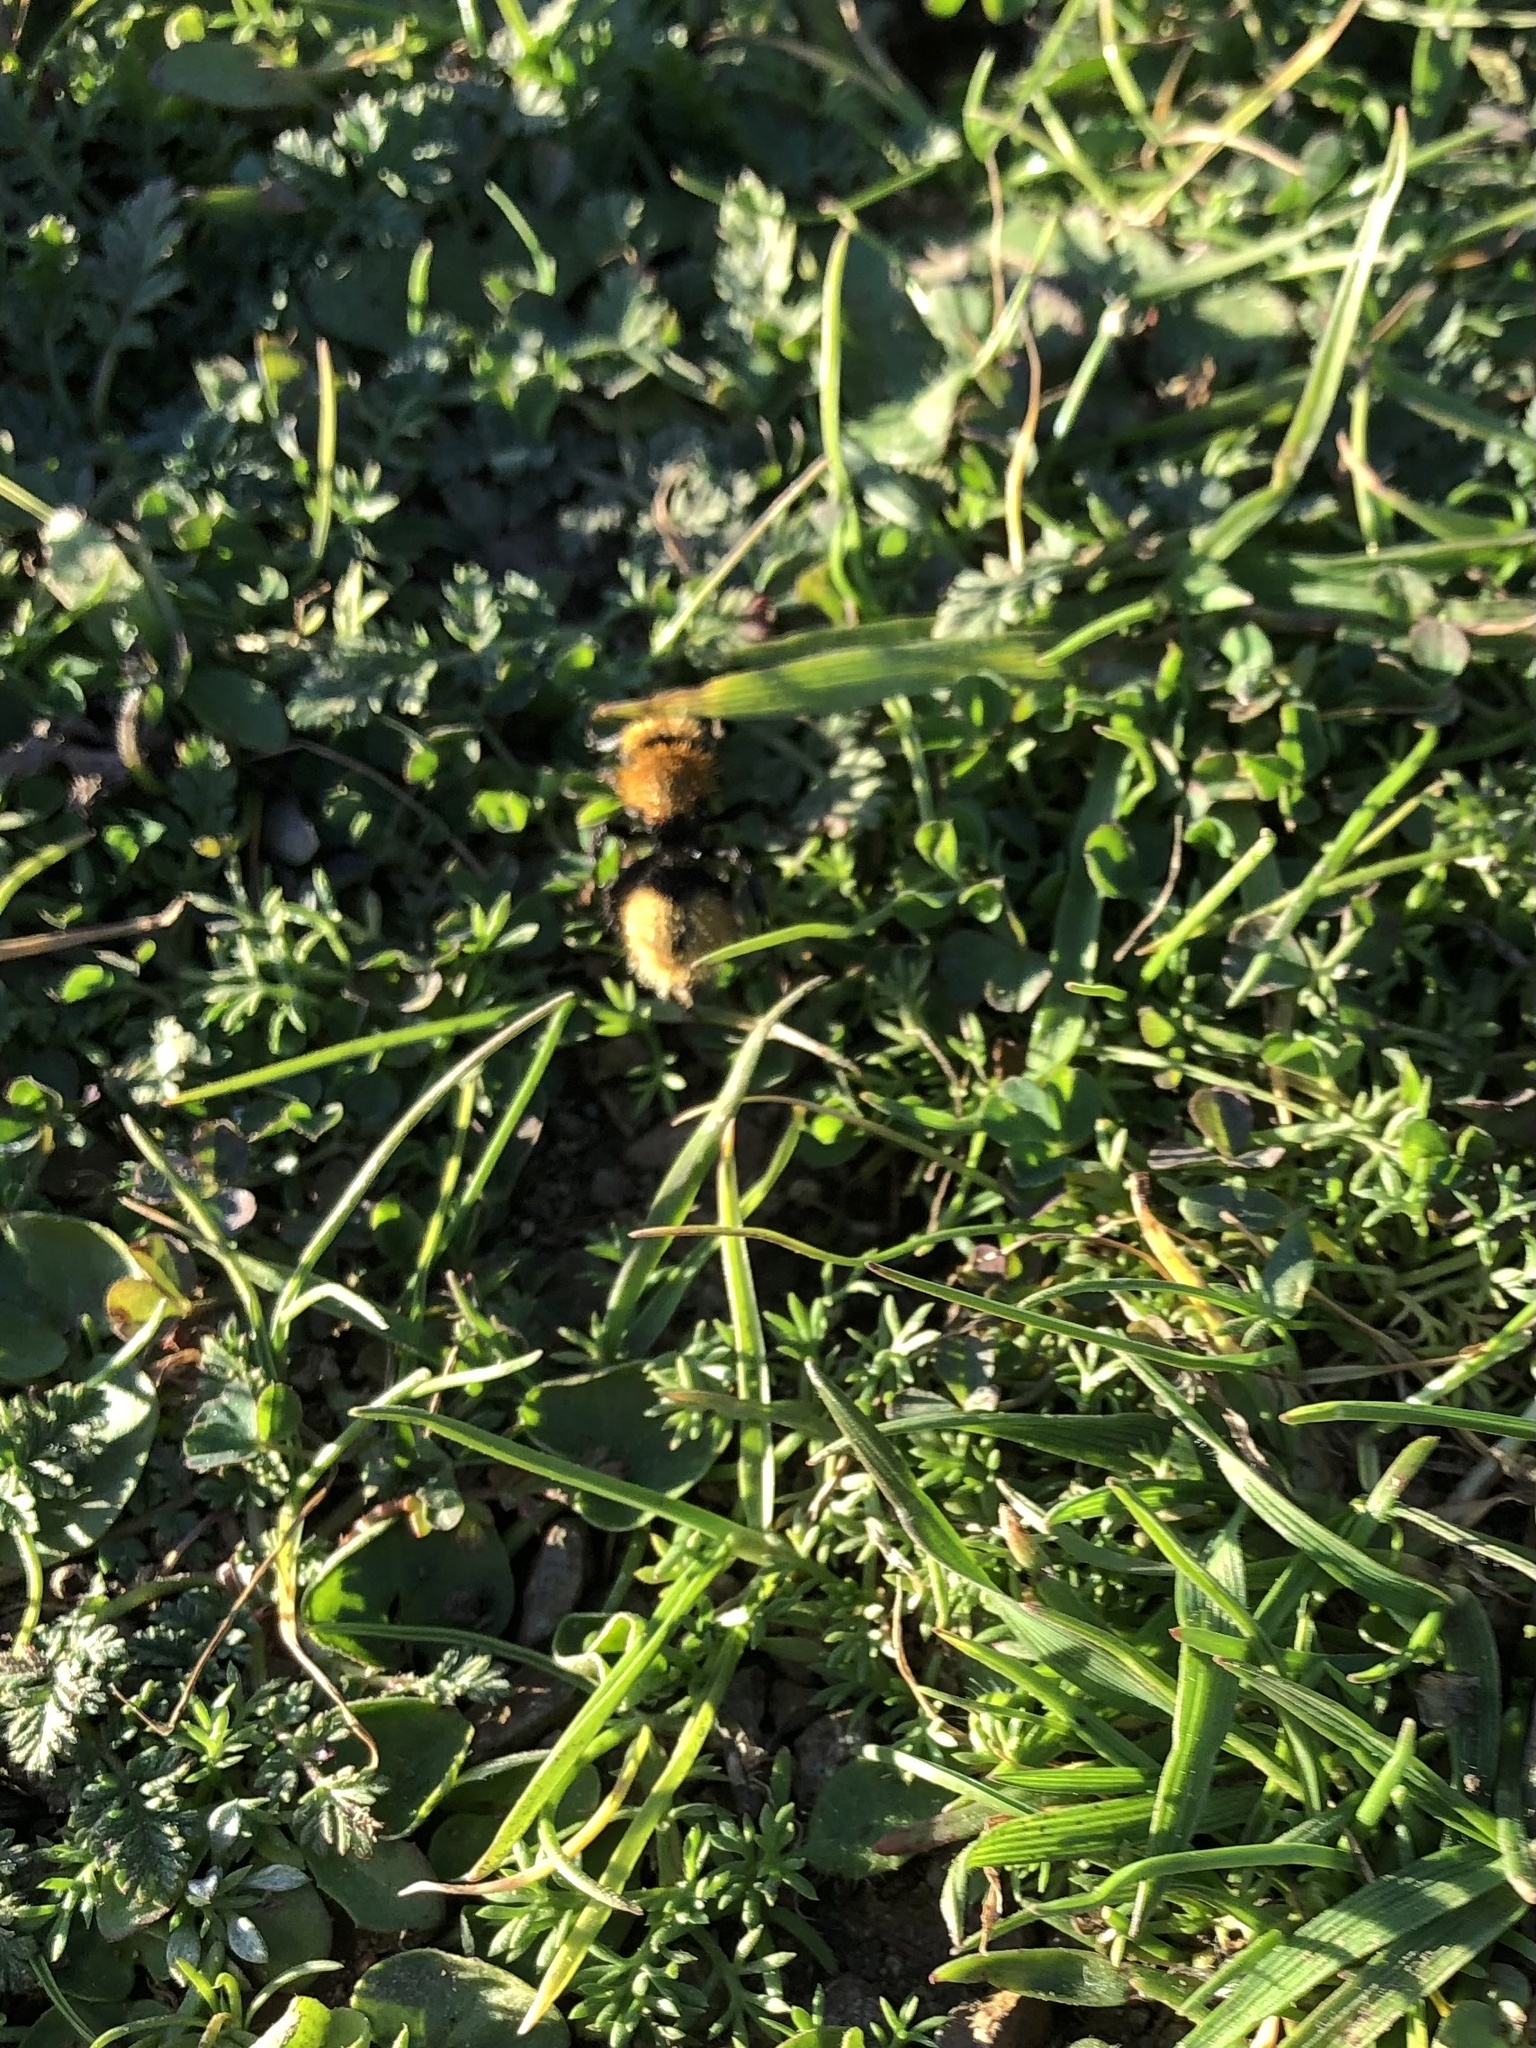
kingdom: Animalia
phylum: Arthropoda
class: Insecta
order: Hymenoptera
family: Mutillidae
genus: Dasymutilla
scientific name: Dasymutilla
